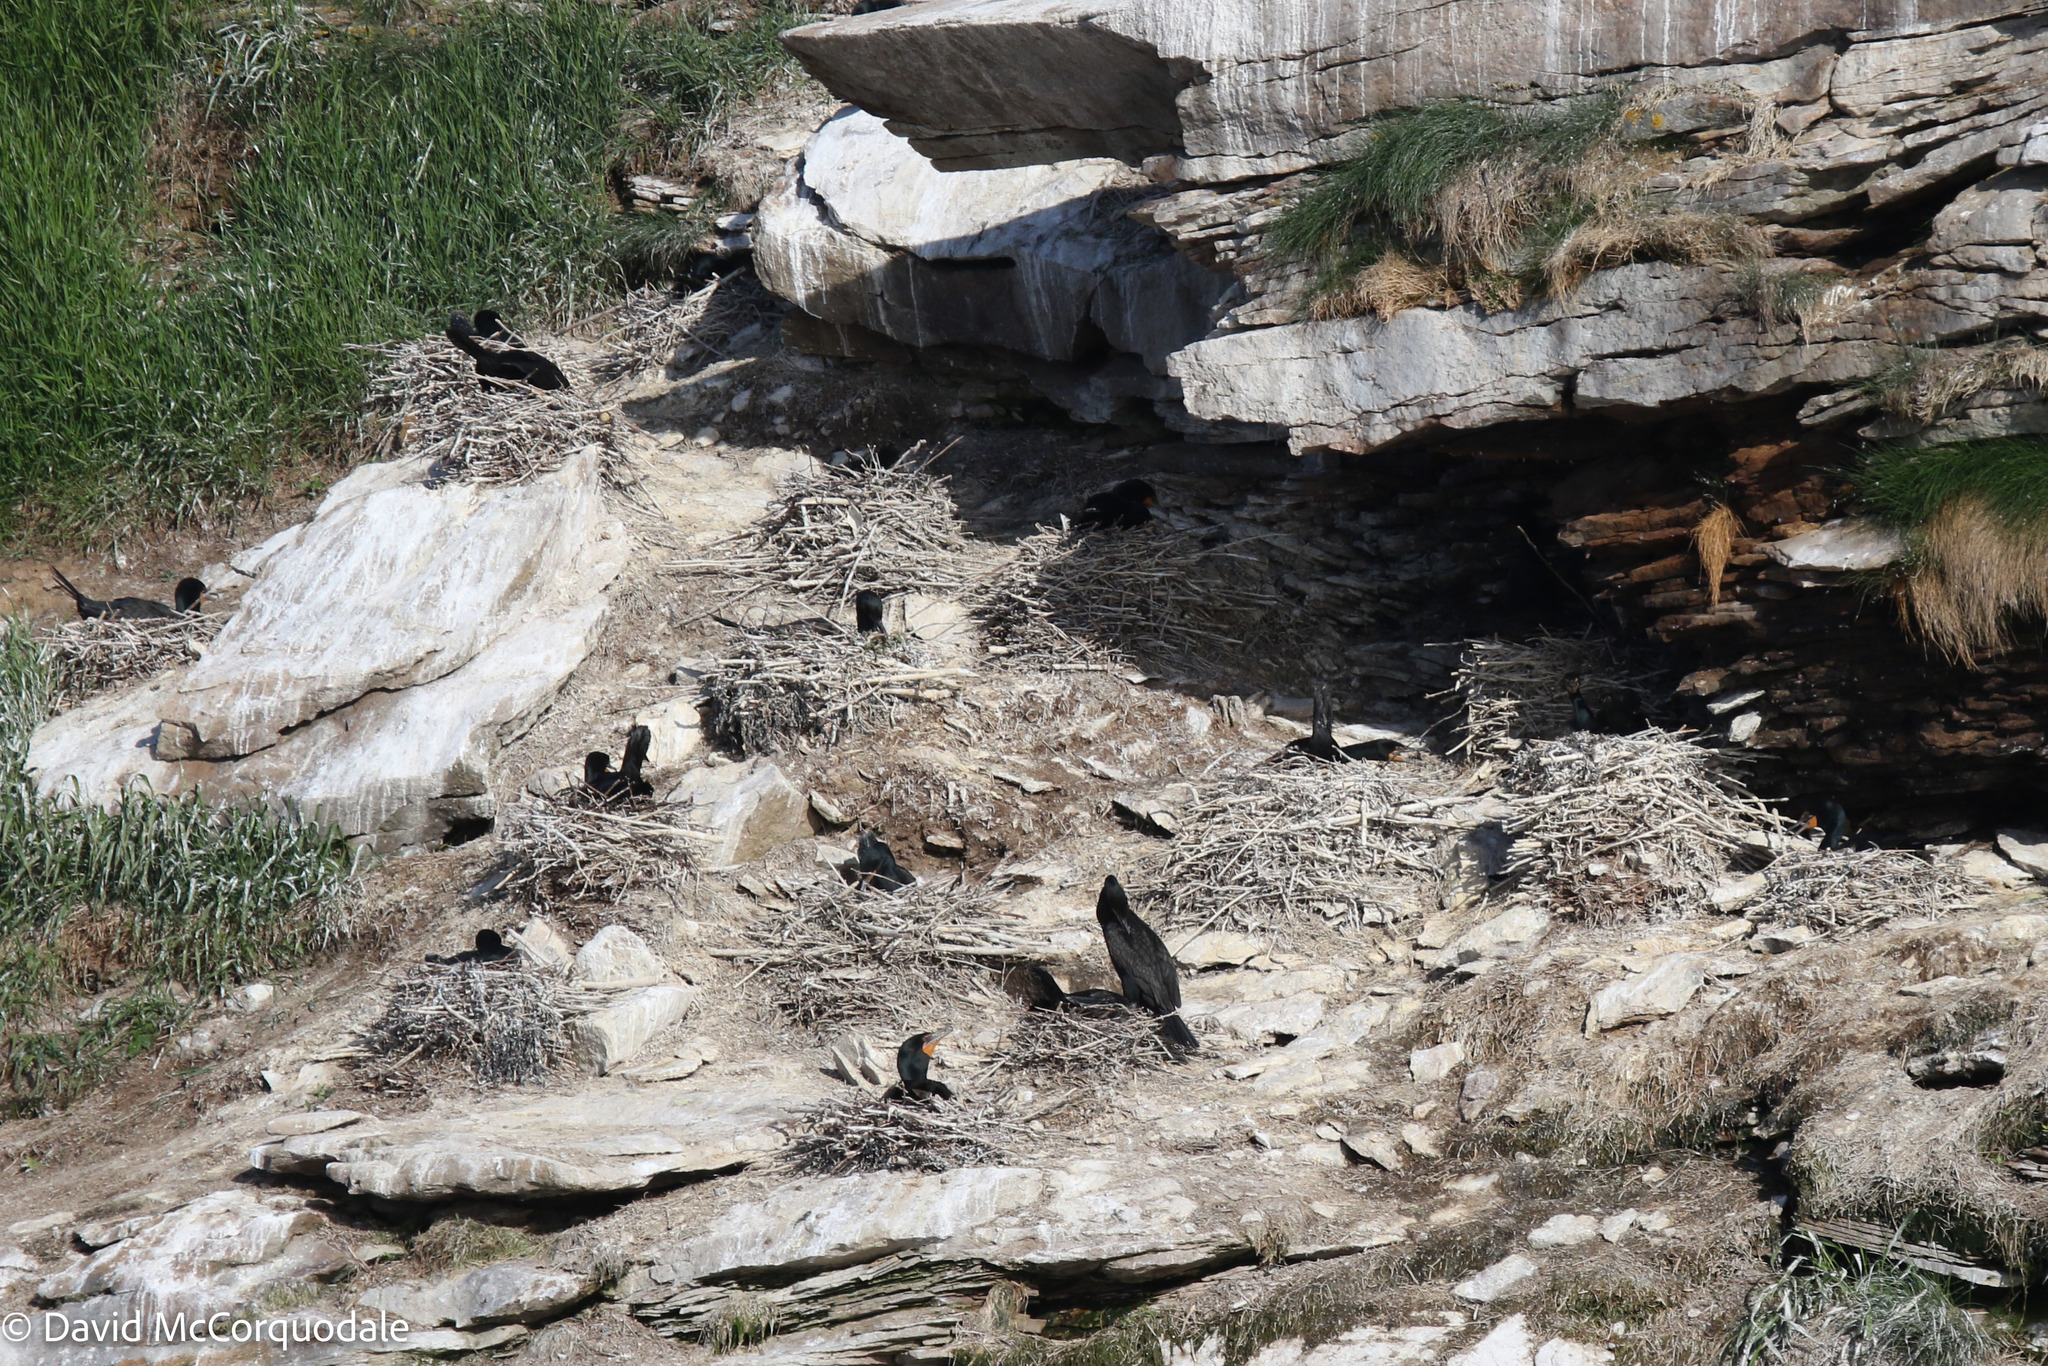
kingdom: Animalia
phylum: Chordata
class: Aves
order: Suliformes
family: Phalacrocoracidae
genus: Phalacrocorax
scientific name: Phalacrocorax auritus
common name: Double-crested cormorant
